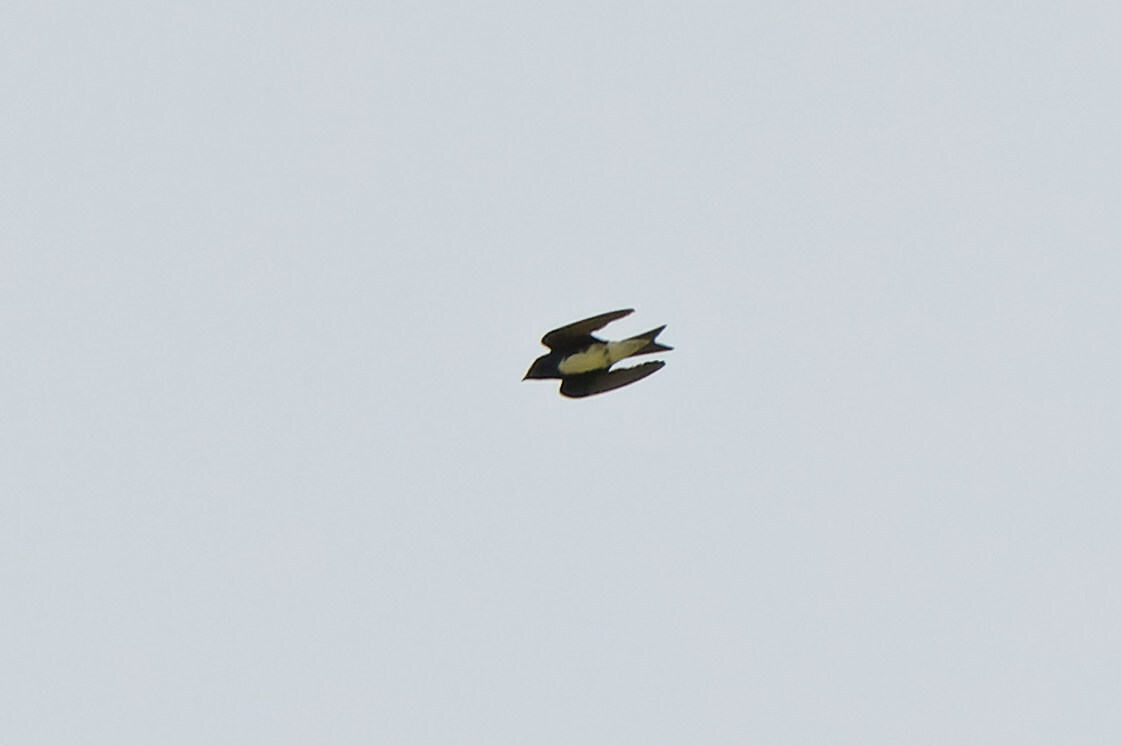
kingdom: Animalia
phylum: Chordata
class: Aves
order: Passeriformes
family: Hirundinidae
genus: Progne
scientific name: Progne dominicensis
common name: Caribbean martin
